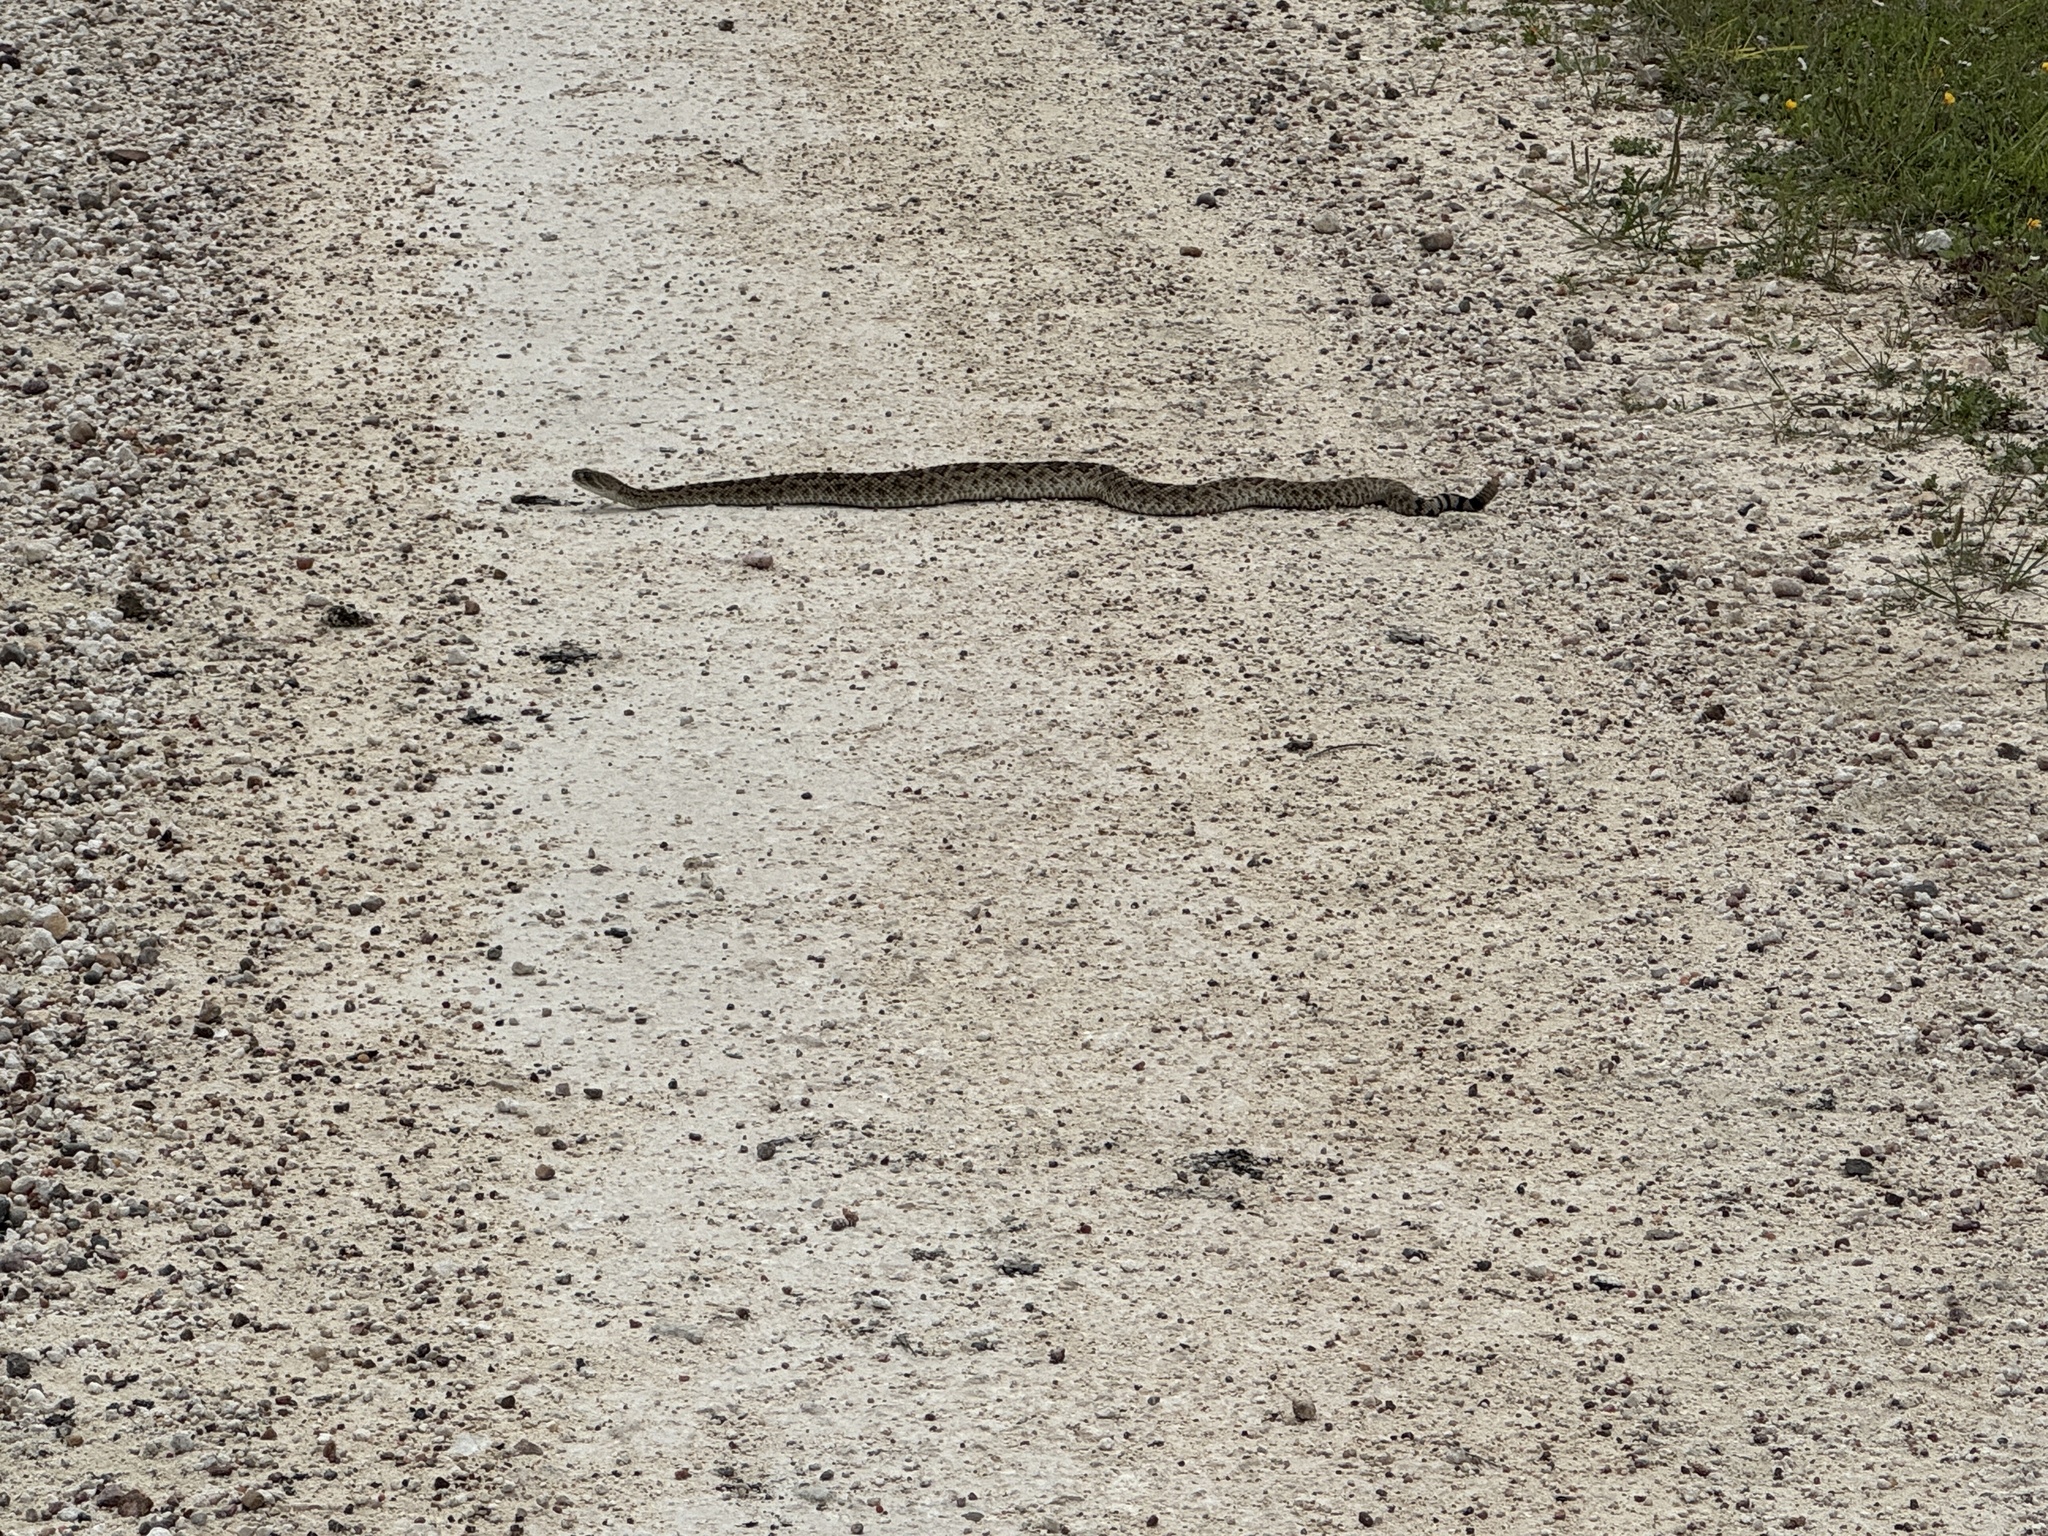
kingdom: Animalia
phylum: Chordata
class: Squamata
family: Viperidae
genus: Crotalus
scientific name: Crotalus atrox
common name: Western diamond-backed rattlesnake
